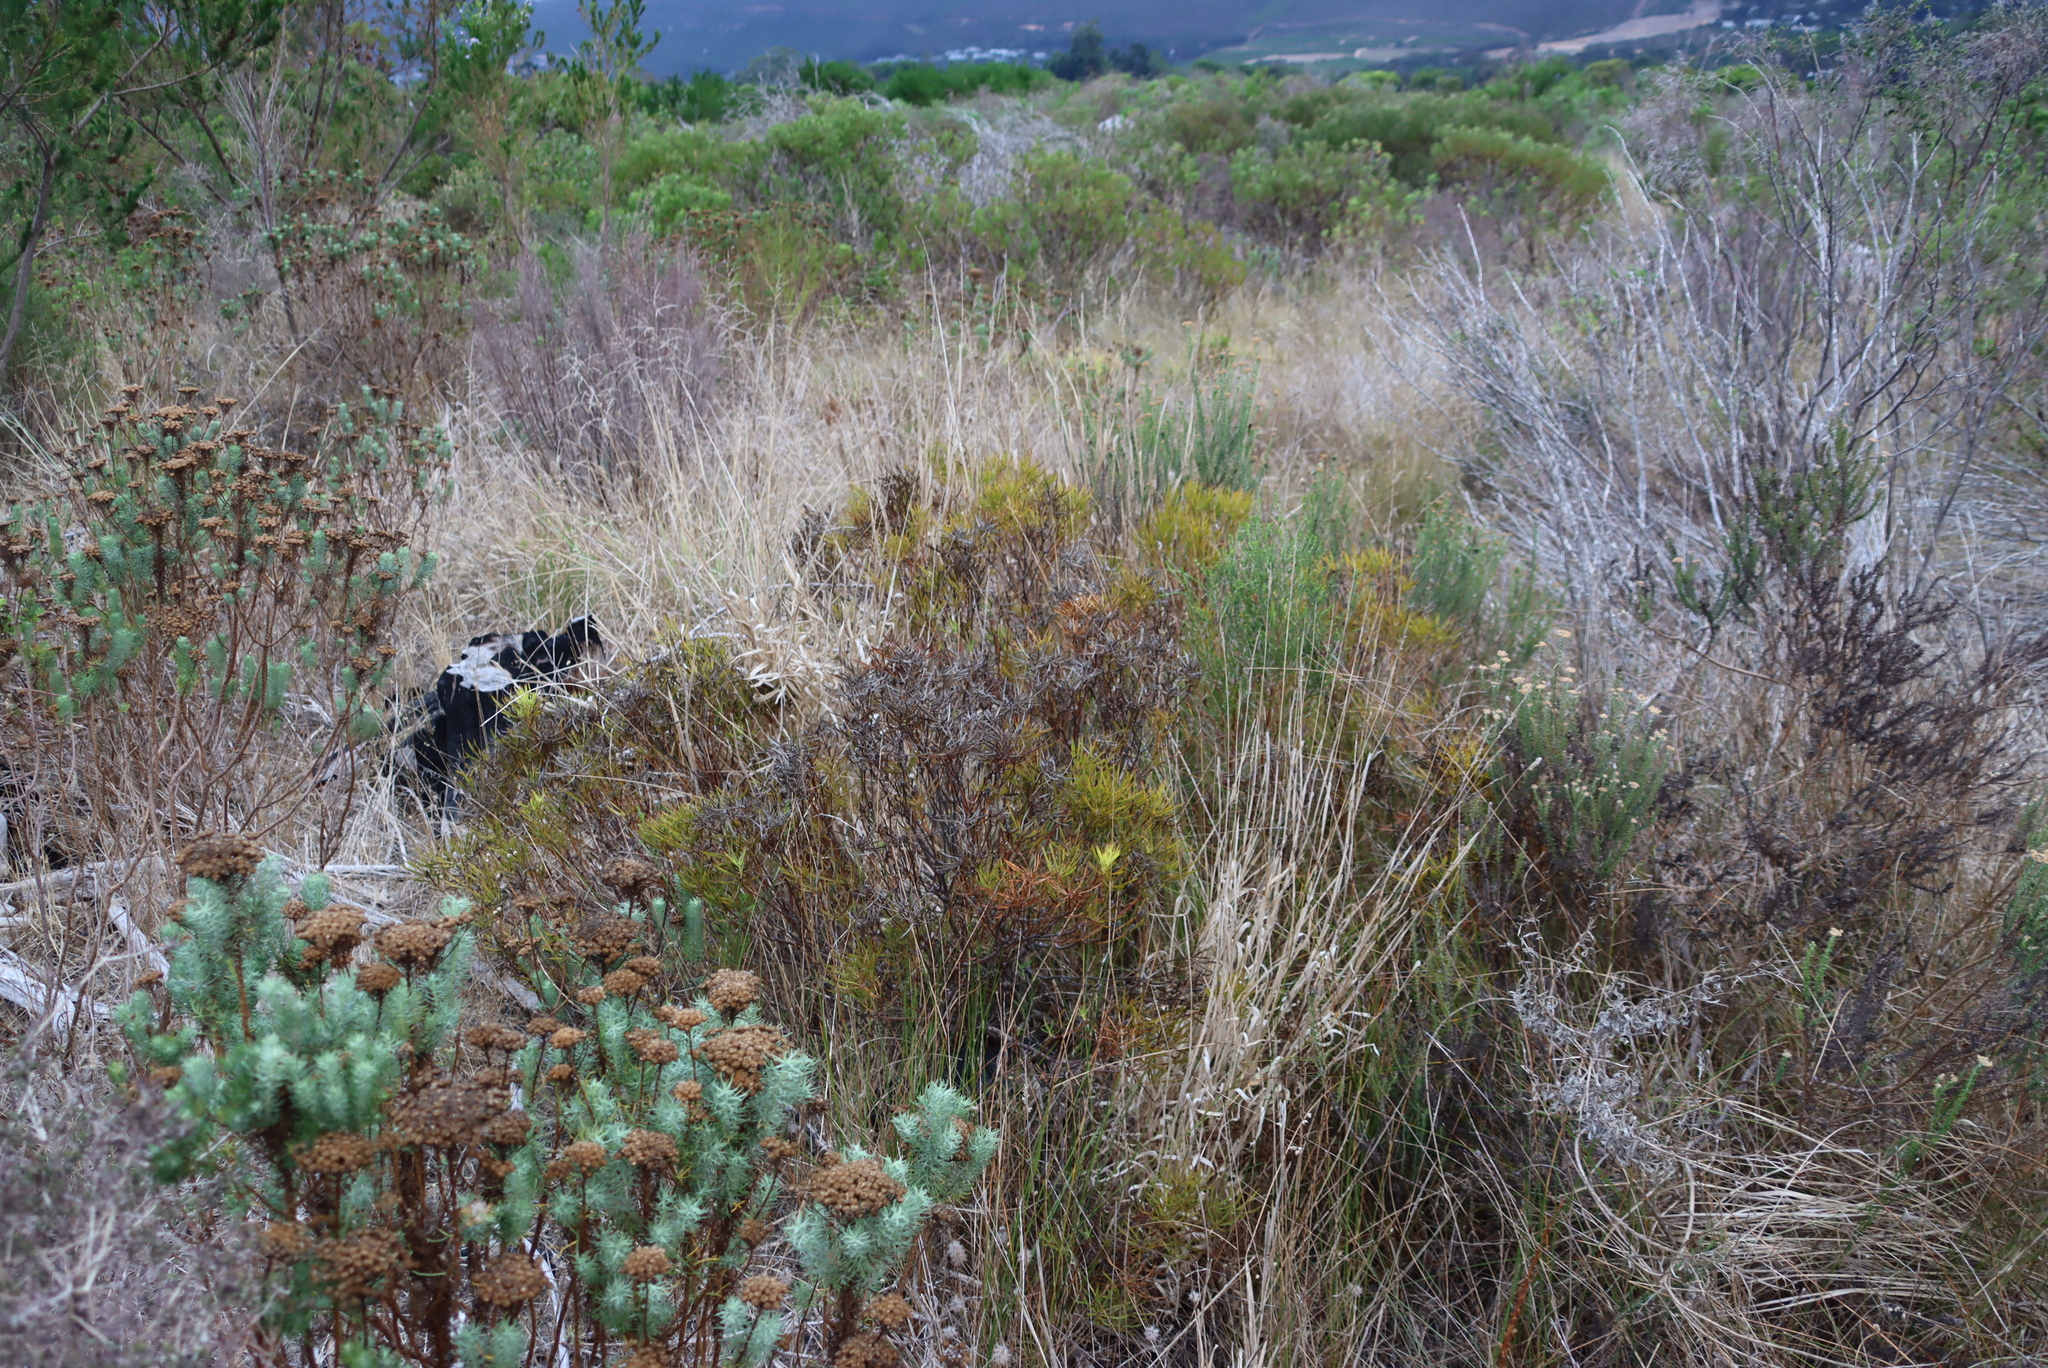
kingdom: Plantae
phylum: Tracheophyta
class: Magnoliopsida
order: Proteales
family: Proteaceae
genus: Leucadendron
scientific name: Leucadendron salignum
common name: Common sunshine conebush
